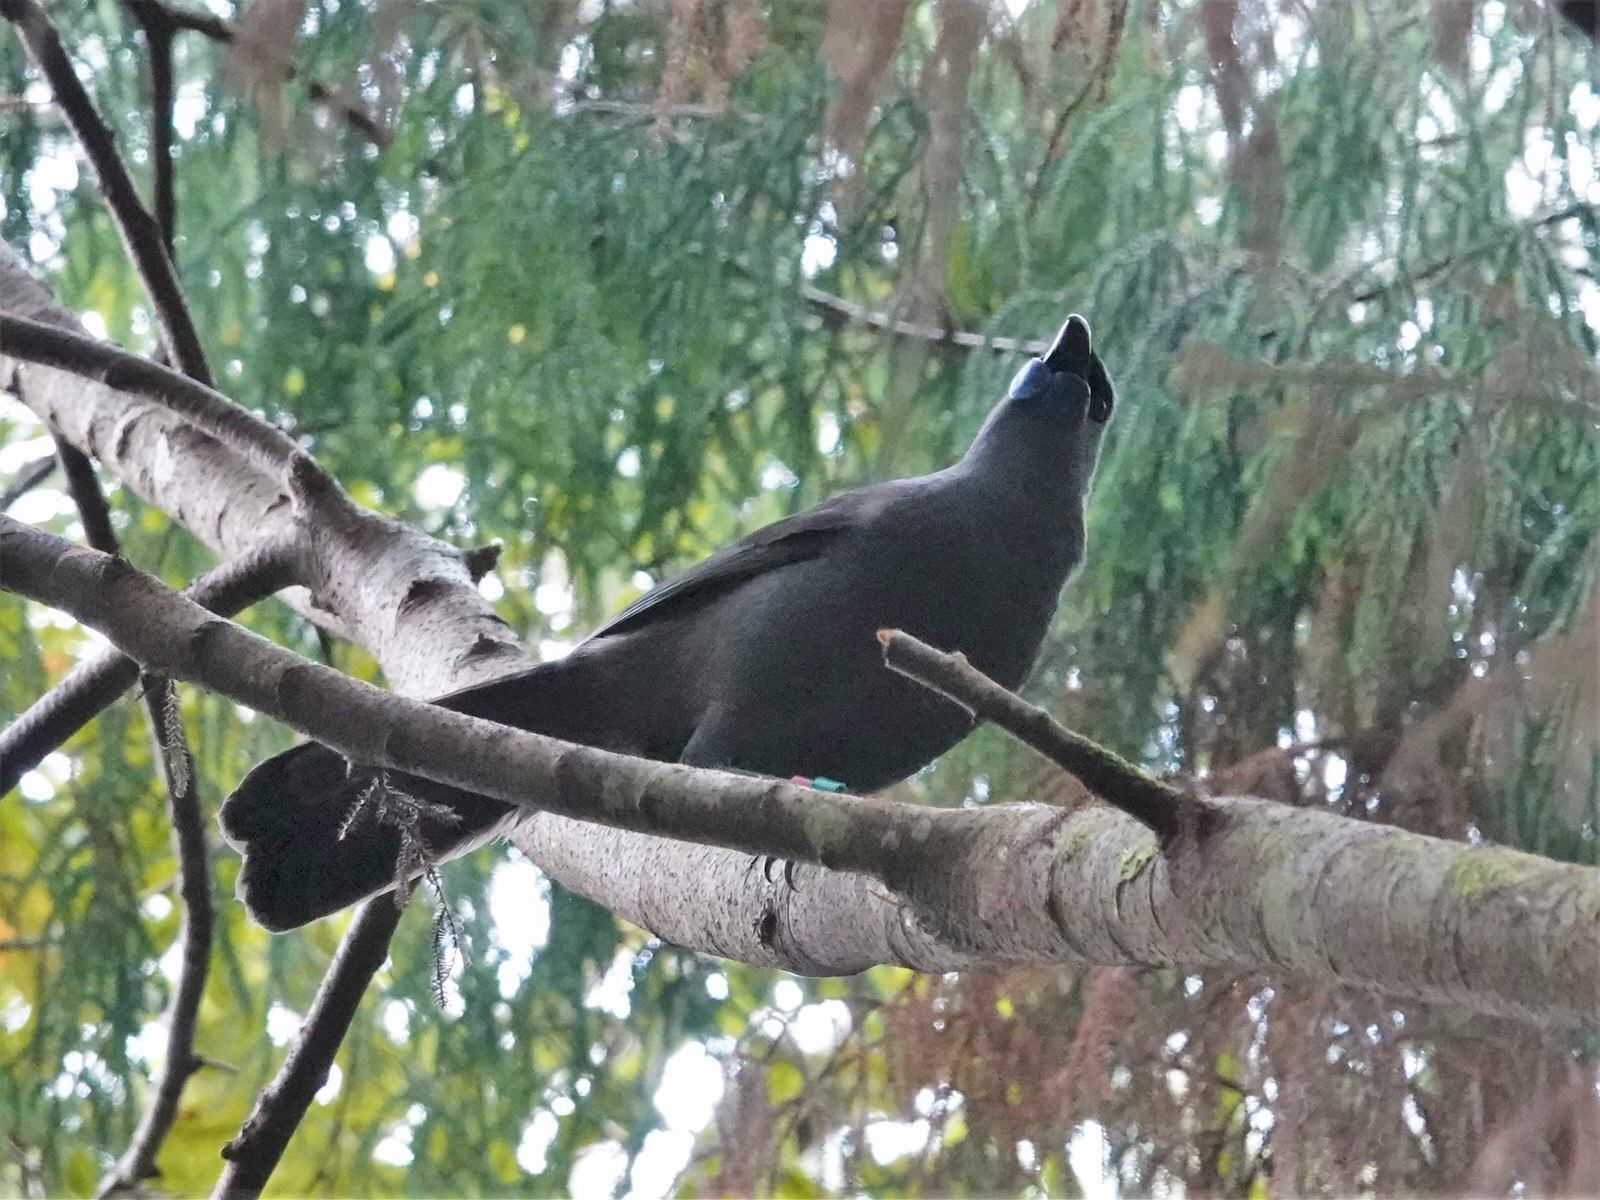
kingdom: Animalia
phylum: Chordata
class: Aves
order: Passeriformes
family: Callaeatidae
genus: Callaeas
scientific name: Callaeas cinereus
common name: South island kokako
